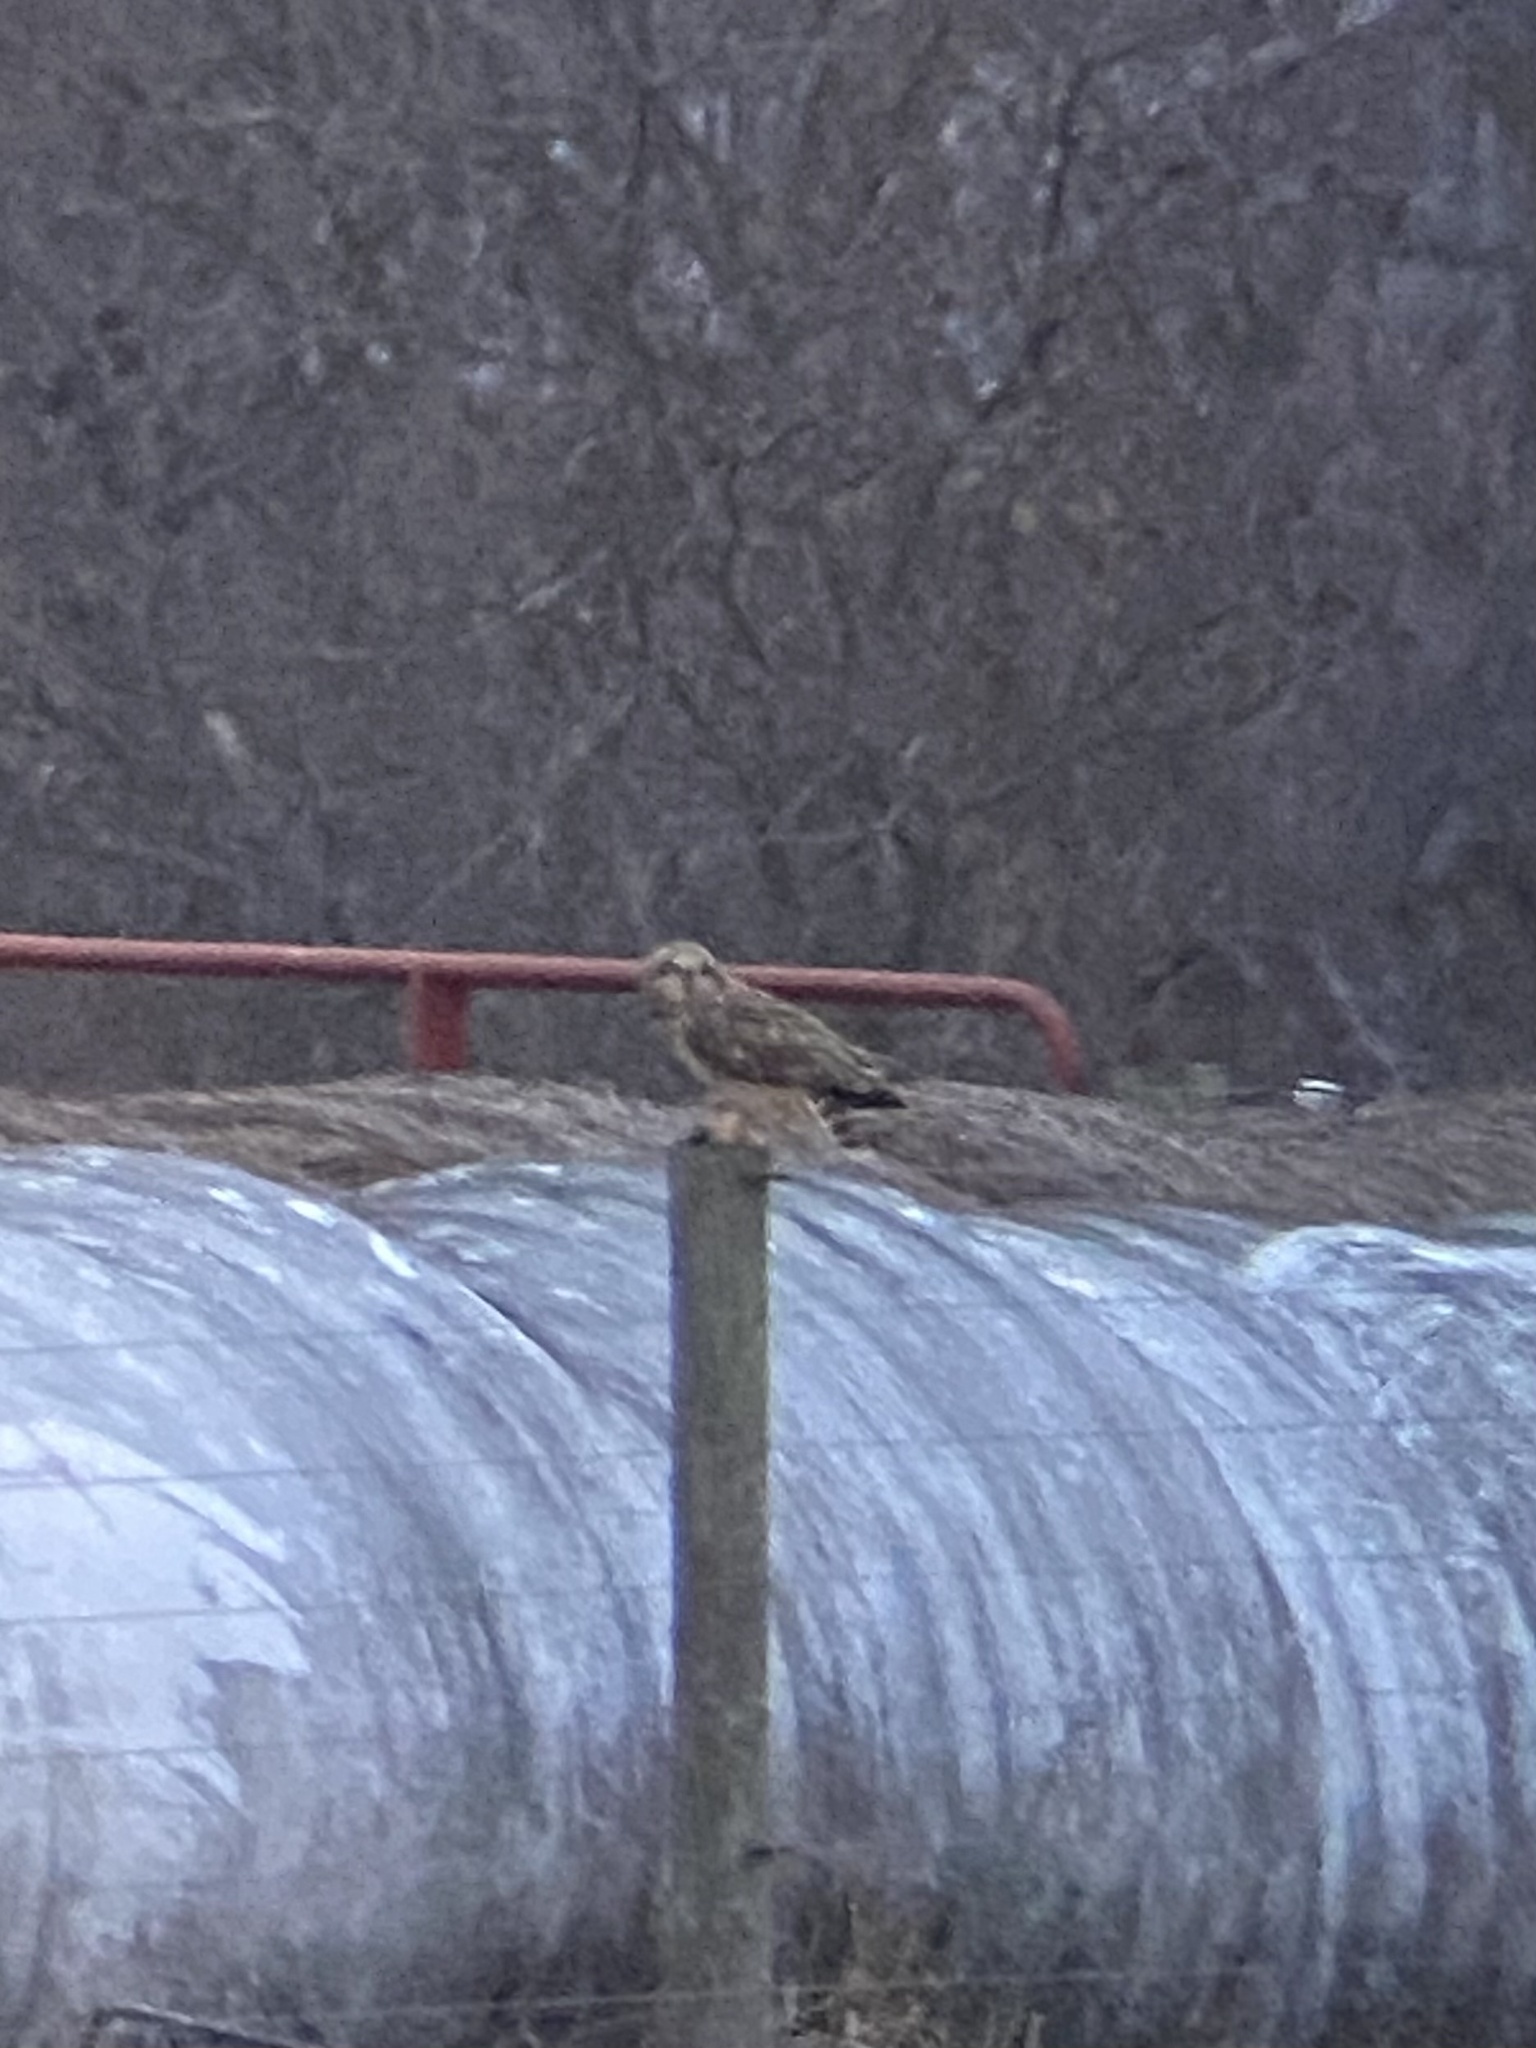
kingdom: Animalia
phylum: Chordata
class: Aves
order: Strigiformes
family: Strigidae
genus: Asio
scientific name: Asio flammeus
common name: Short-eared owl
